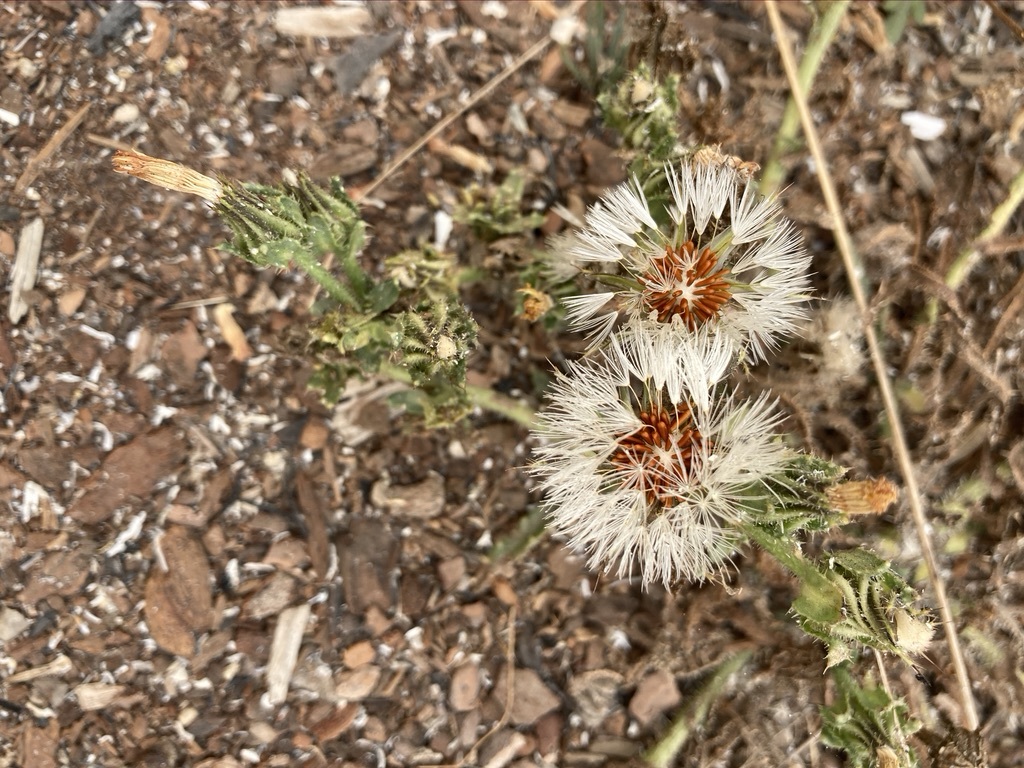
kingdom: Plantae
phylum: Tracheophyta
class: Magnoliopsida
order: Asterales
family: Asteraceae
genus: Helminthotheca
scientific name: Helminthotheca echioides
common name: Ox-tongue
